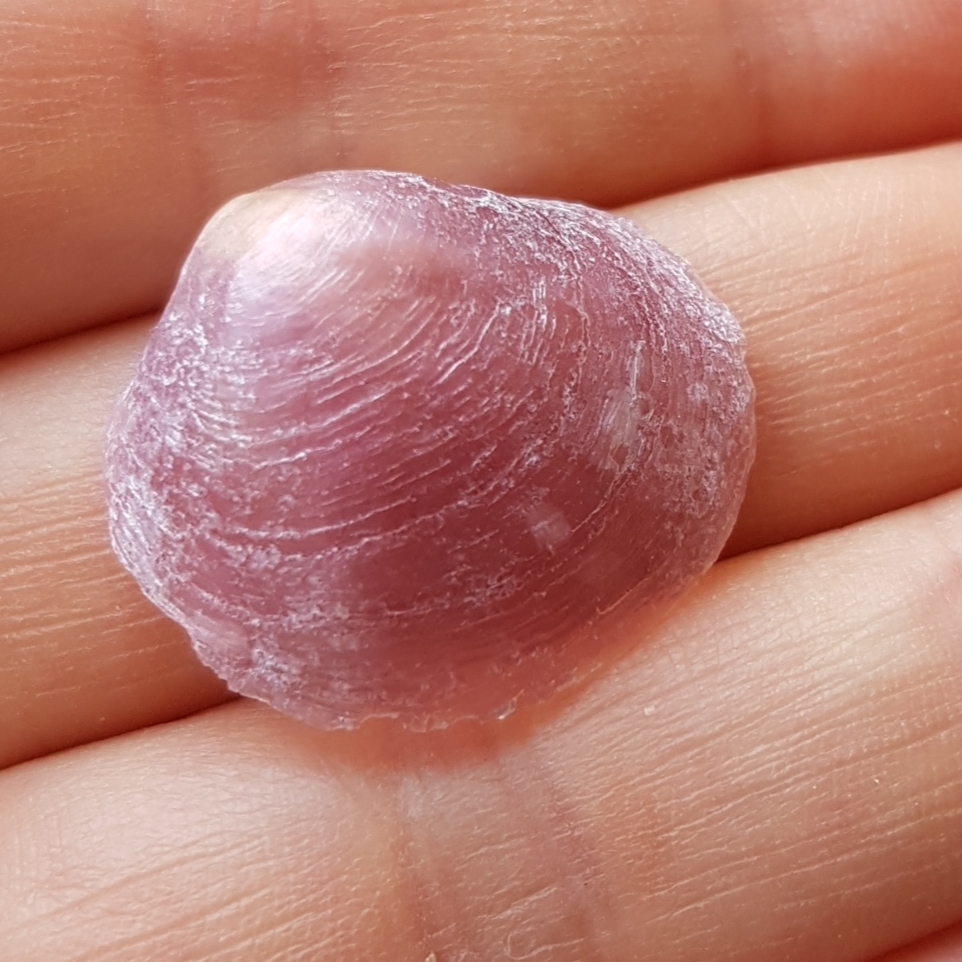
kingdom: Animalia
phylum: Mollusca
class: Bivalvia
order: Pectinida
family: Anomiidae
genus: Anomia
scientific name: Anomia ephippium
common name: Saddle oyster
